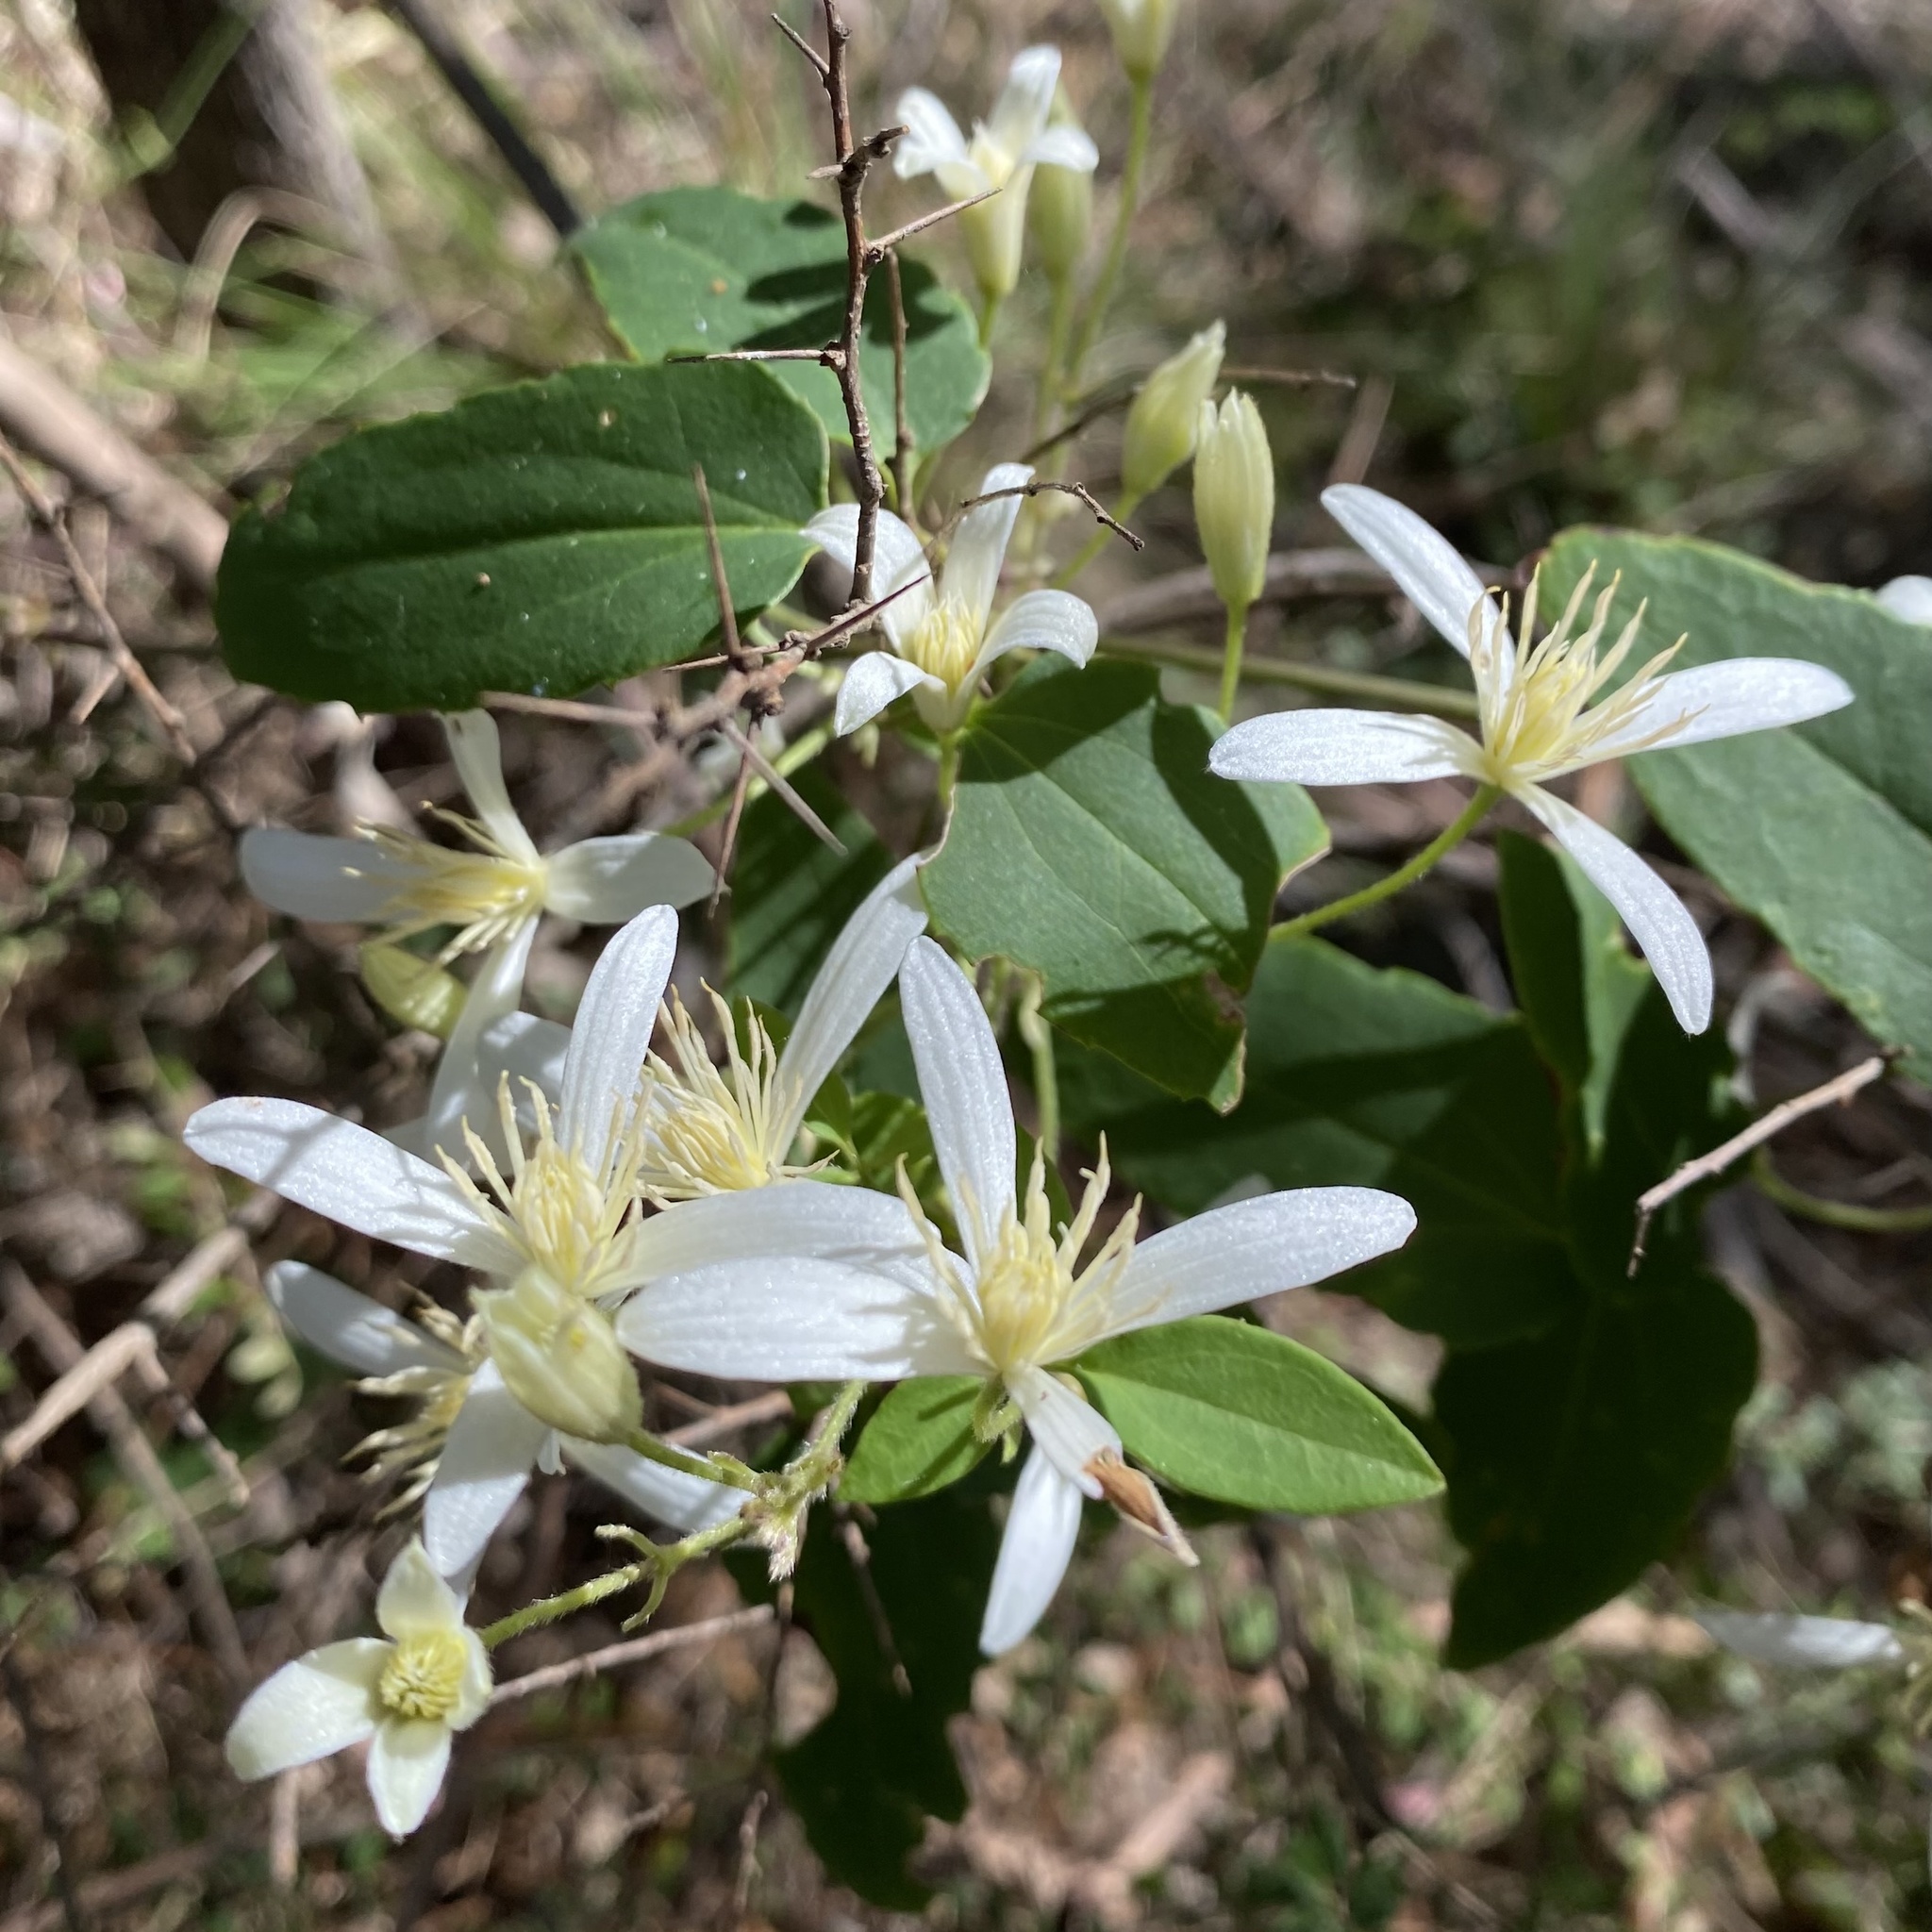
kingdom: Plantae
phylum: Tracheophyta
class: Magnoliopsida
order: Ranunculales
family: Ranunculaceae
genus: Clematis
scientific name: Clematis aristata
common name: Mountain clematis
